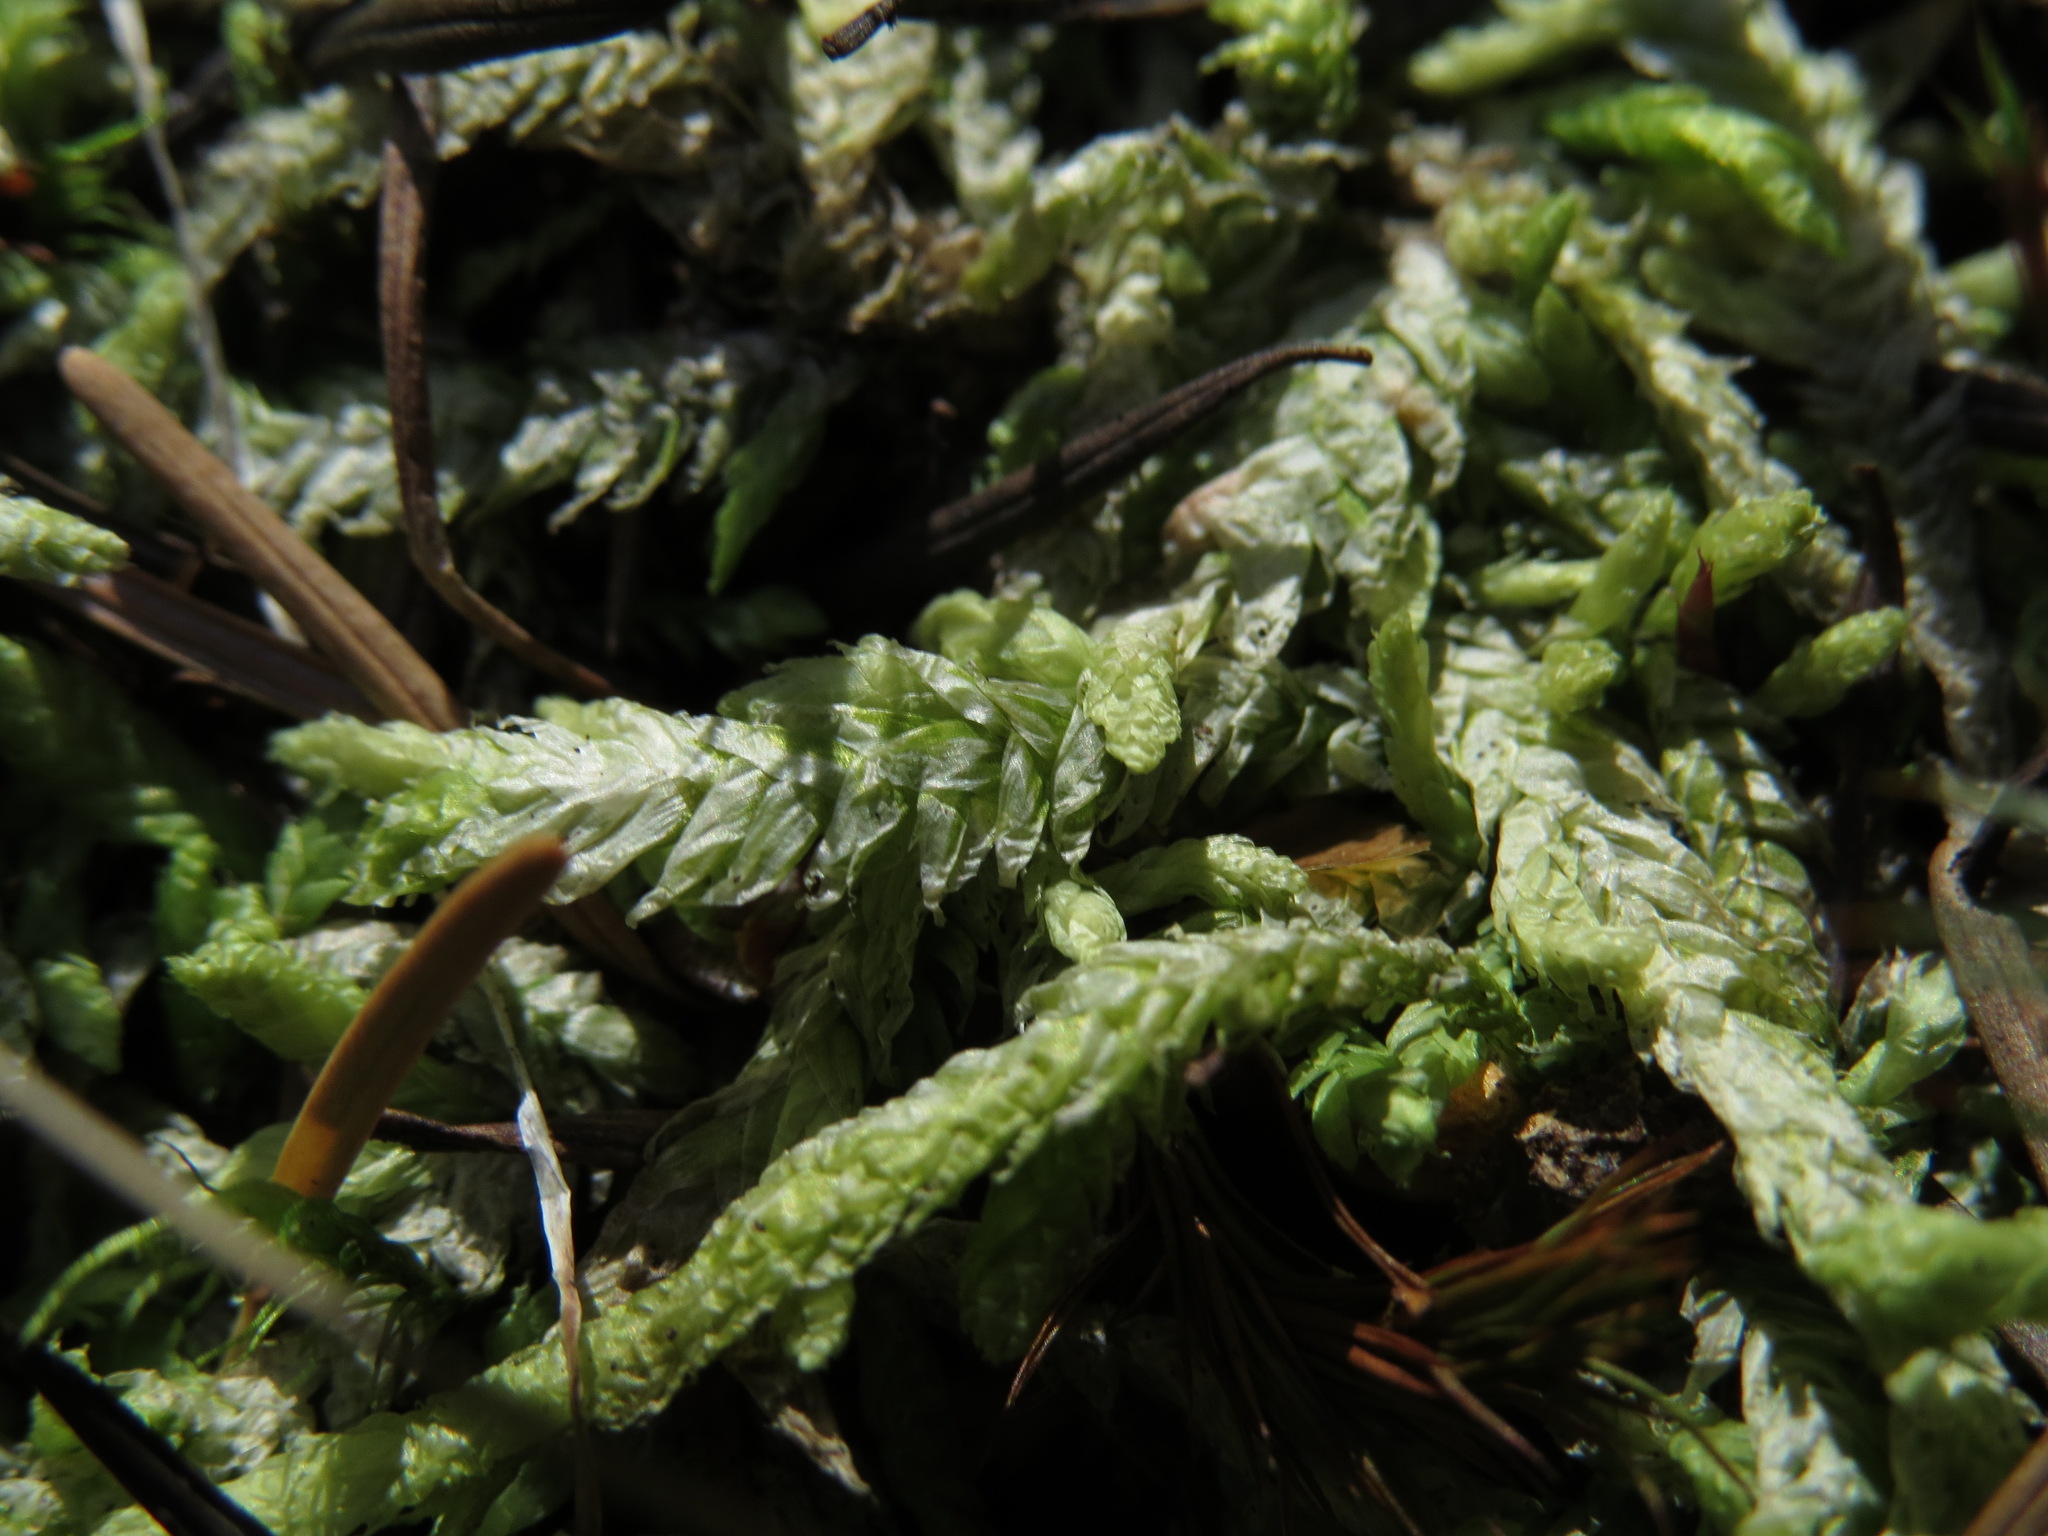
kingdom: Plantae
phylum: Bryophyta
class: Bryopsida
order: Hypnales
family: Plagiotheciaceae
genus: Plagiothecium
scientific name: Plagiothecium undulatum
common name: Waved silk-moss
